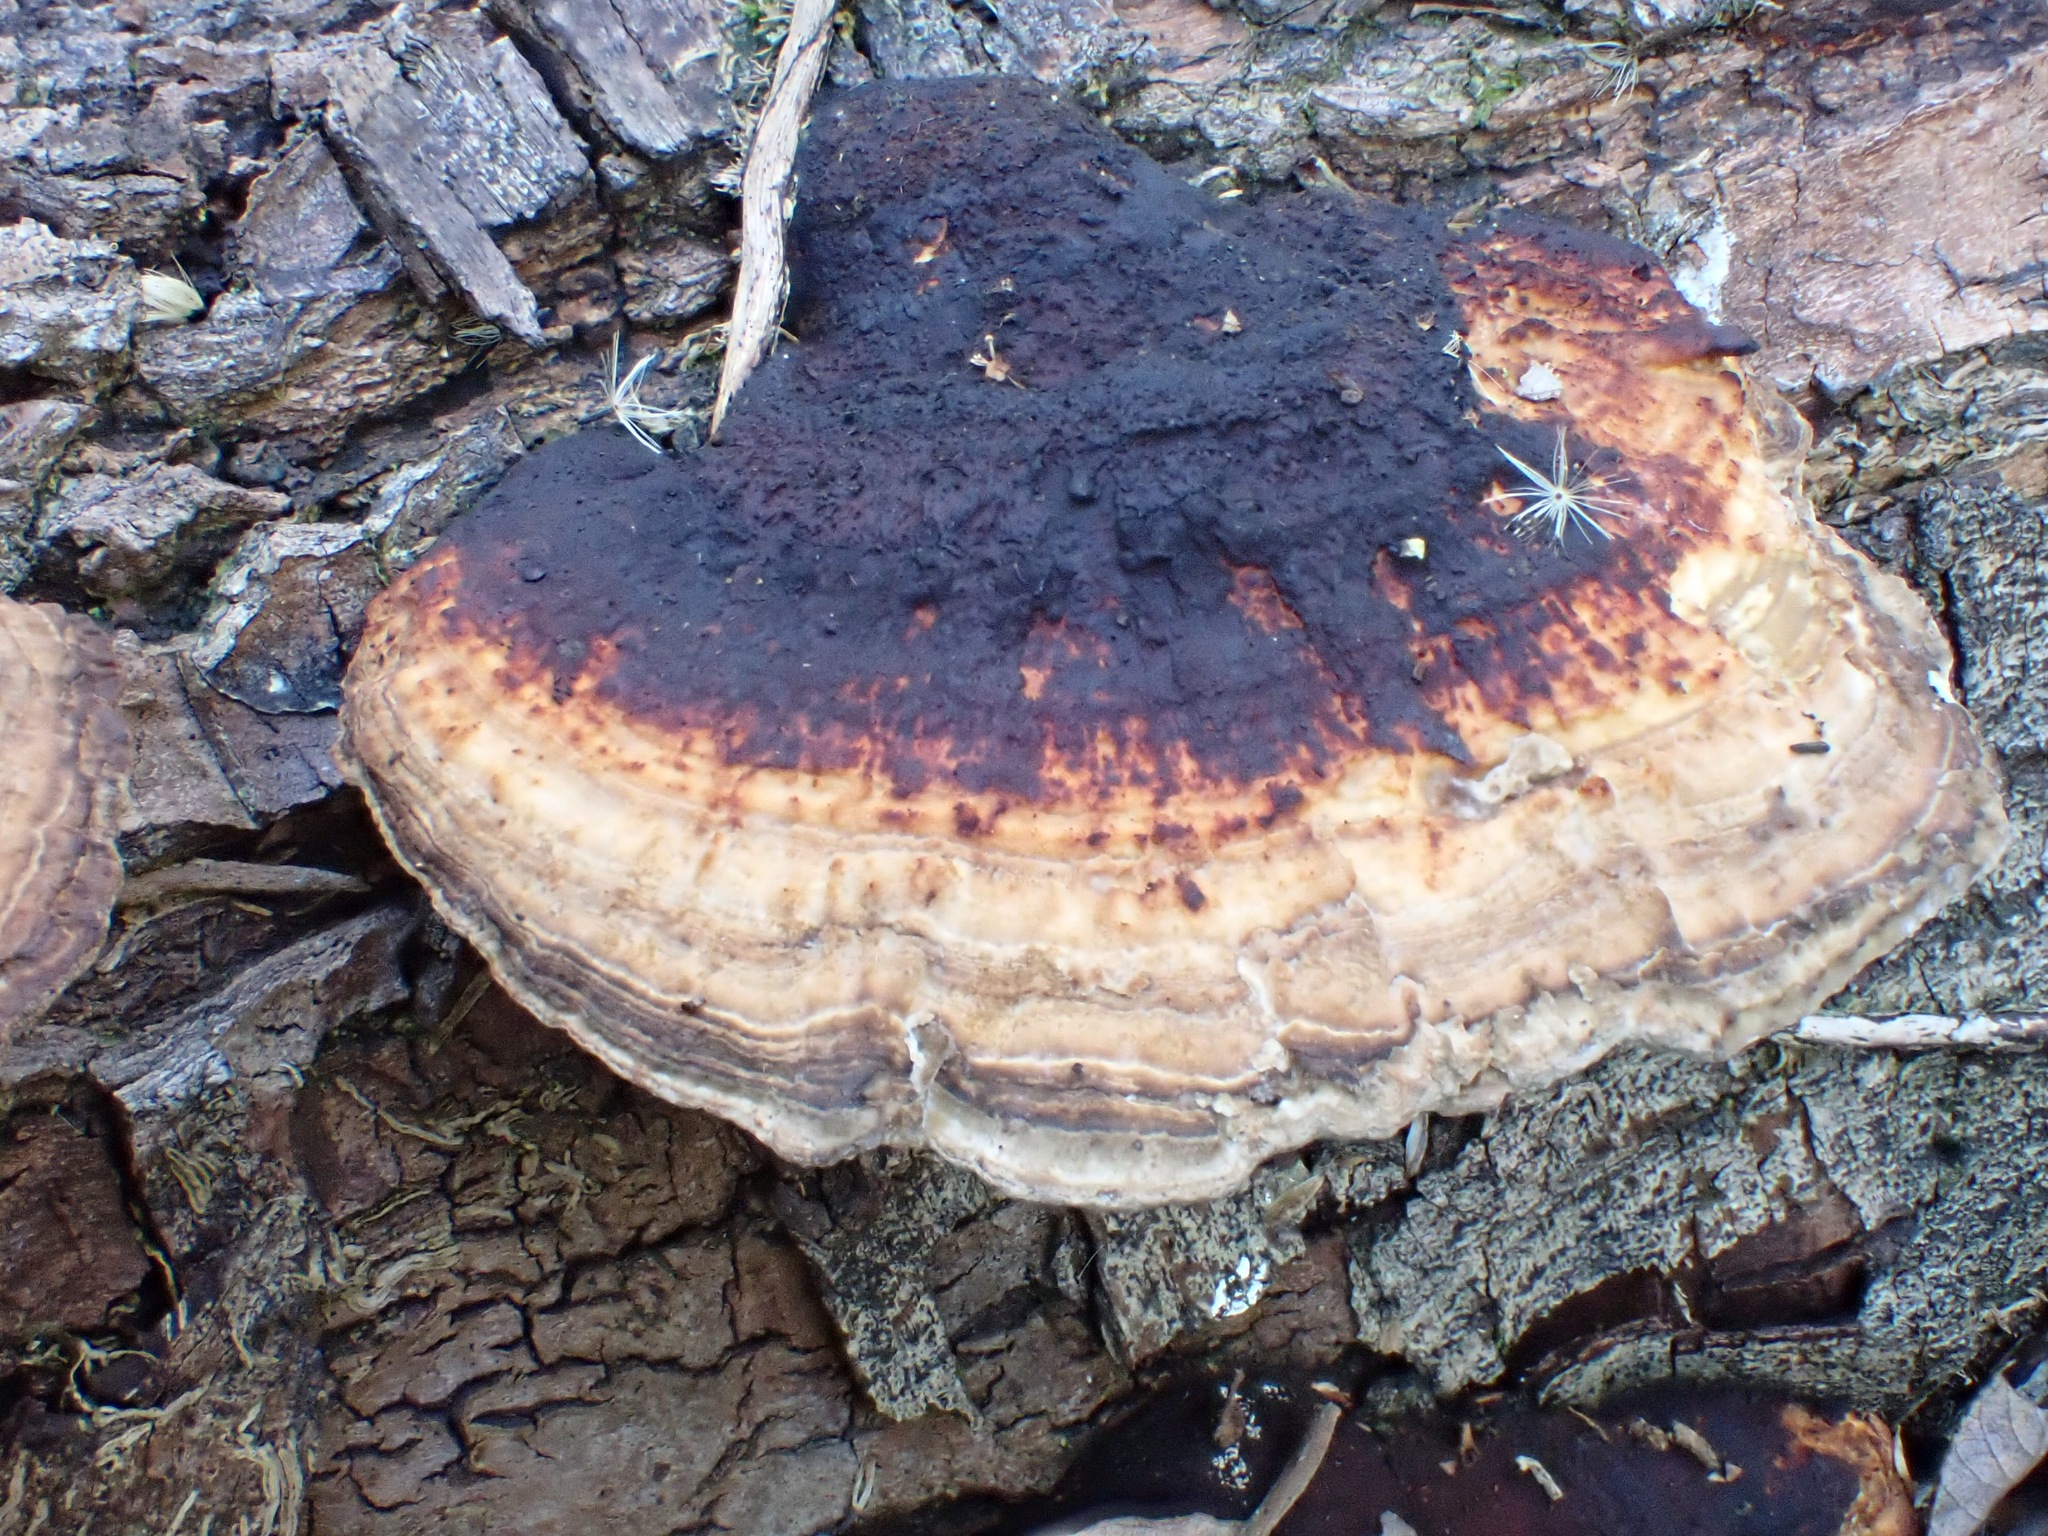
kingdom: Fungi
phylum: Basidiomycota
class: Agaricomycetes
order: Polyporales
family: Polyporaceae
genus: Daedaleopsis
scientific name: Daedaleopsis confragosa
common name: Blushing bracket
